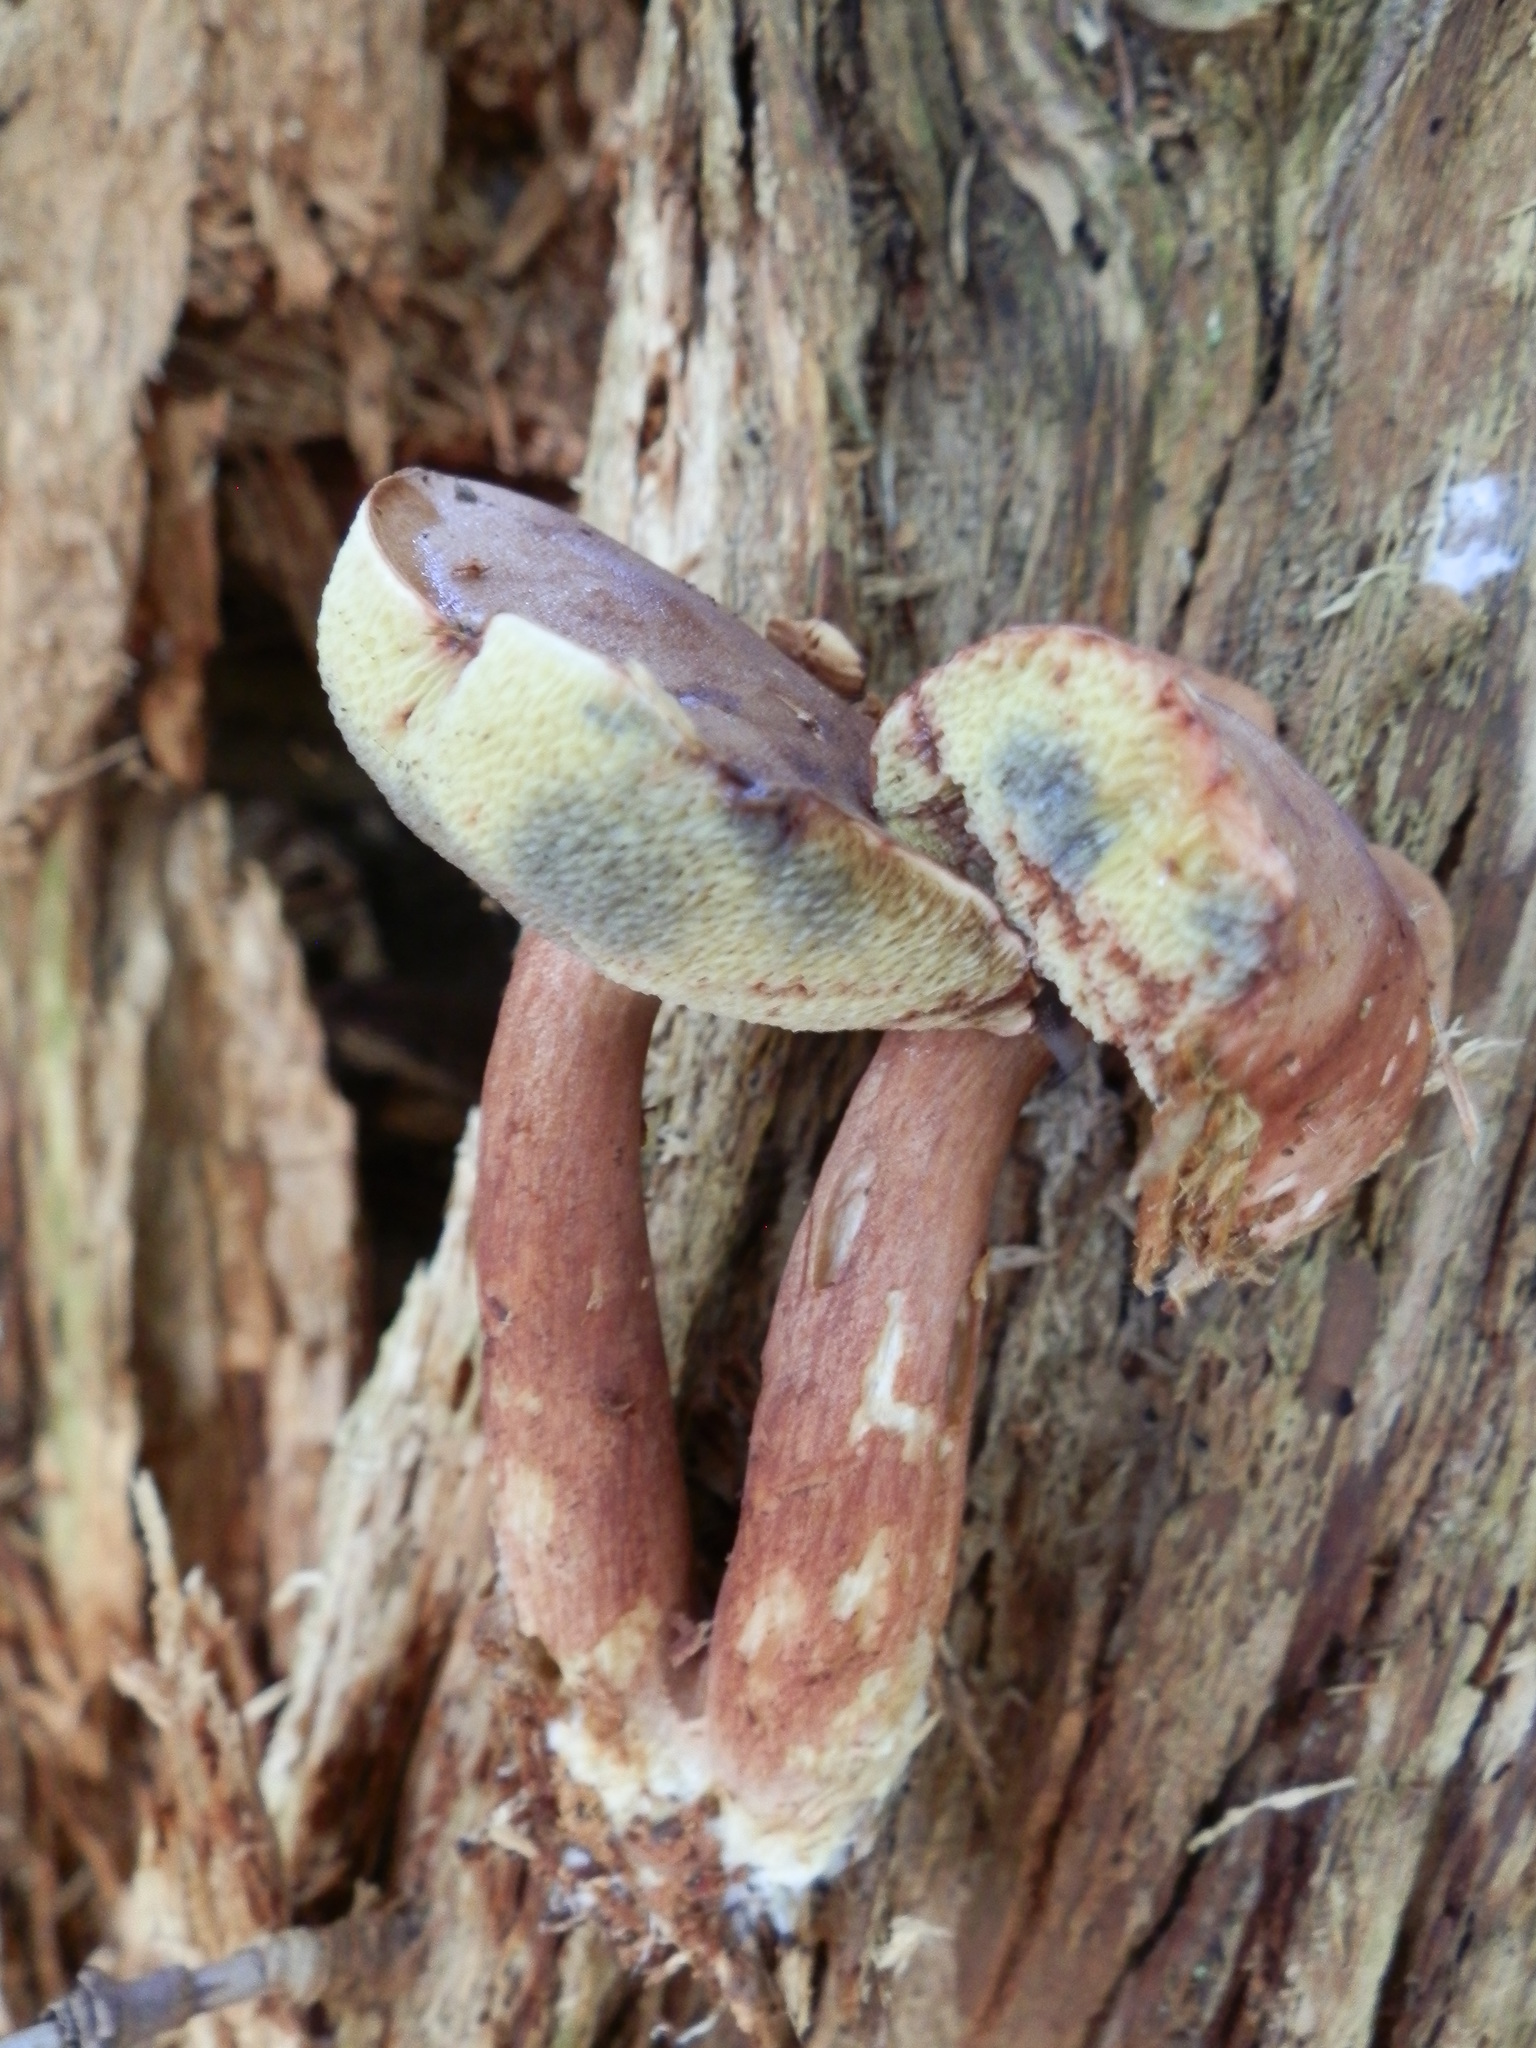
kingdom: Fungi
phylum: Basidiomycota
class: Agaricomycetes
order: Boletales
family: Boletaceae
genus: Imleria
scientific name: Imleria badia
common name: Bay bolete
